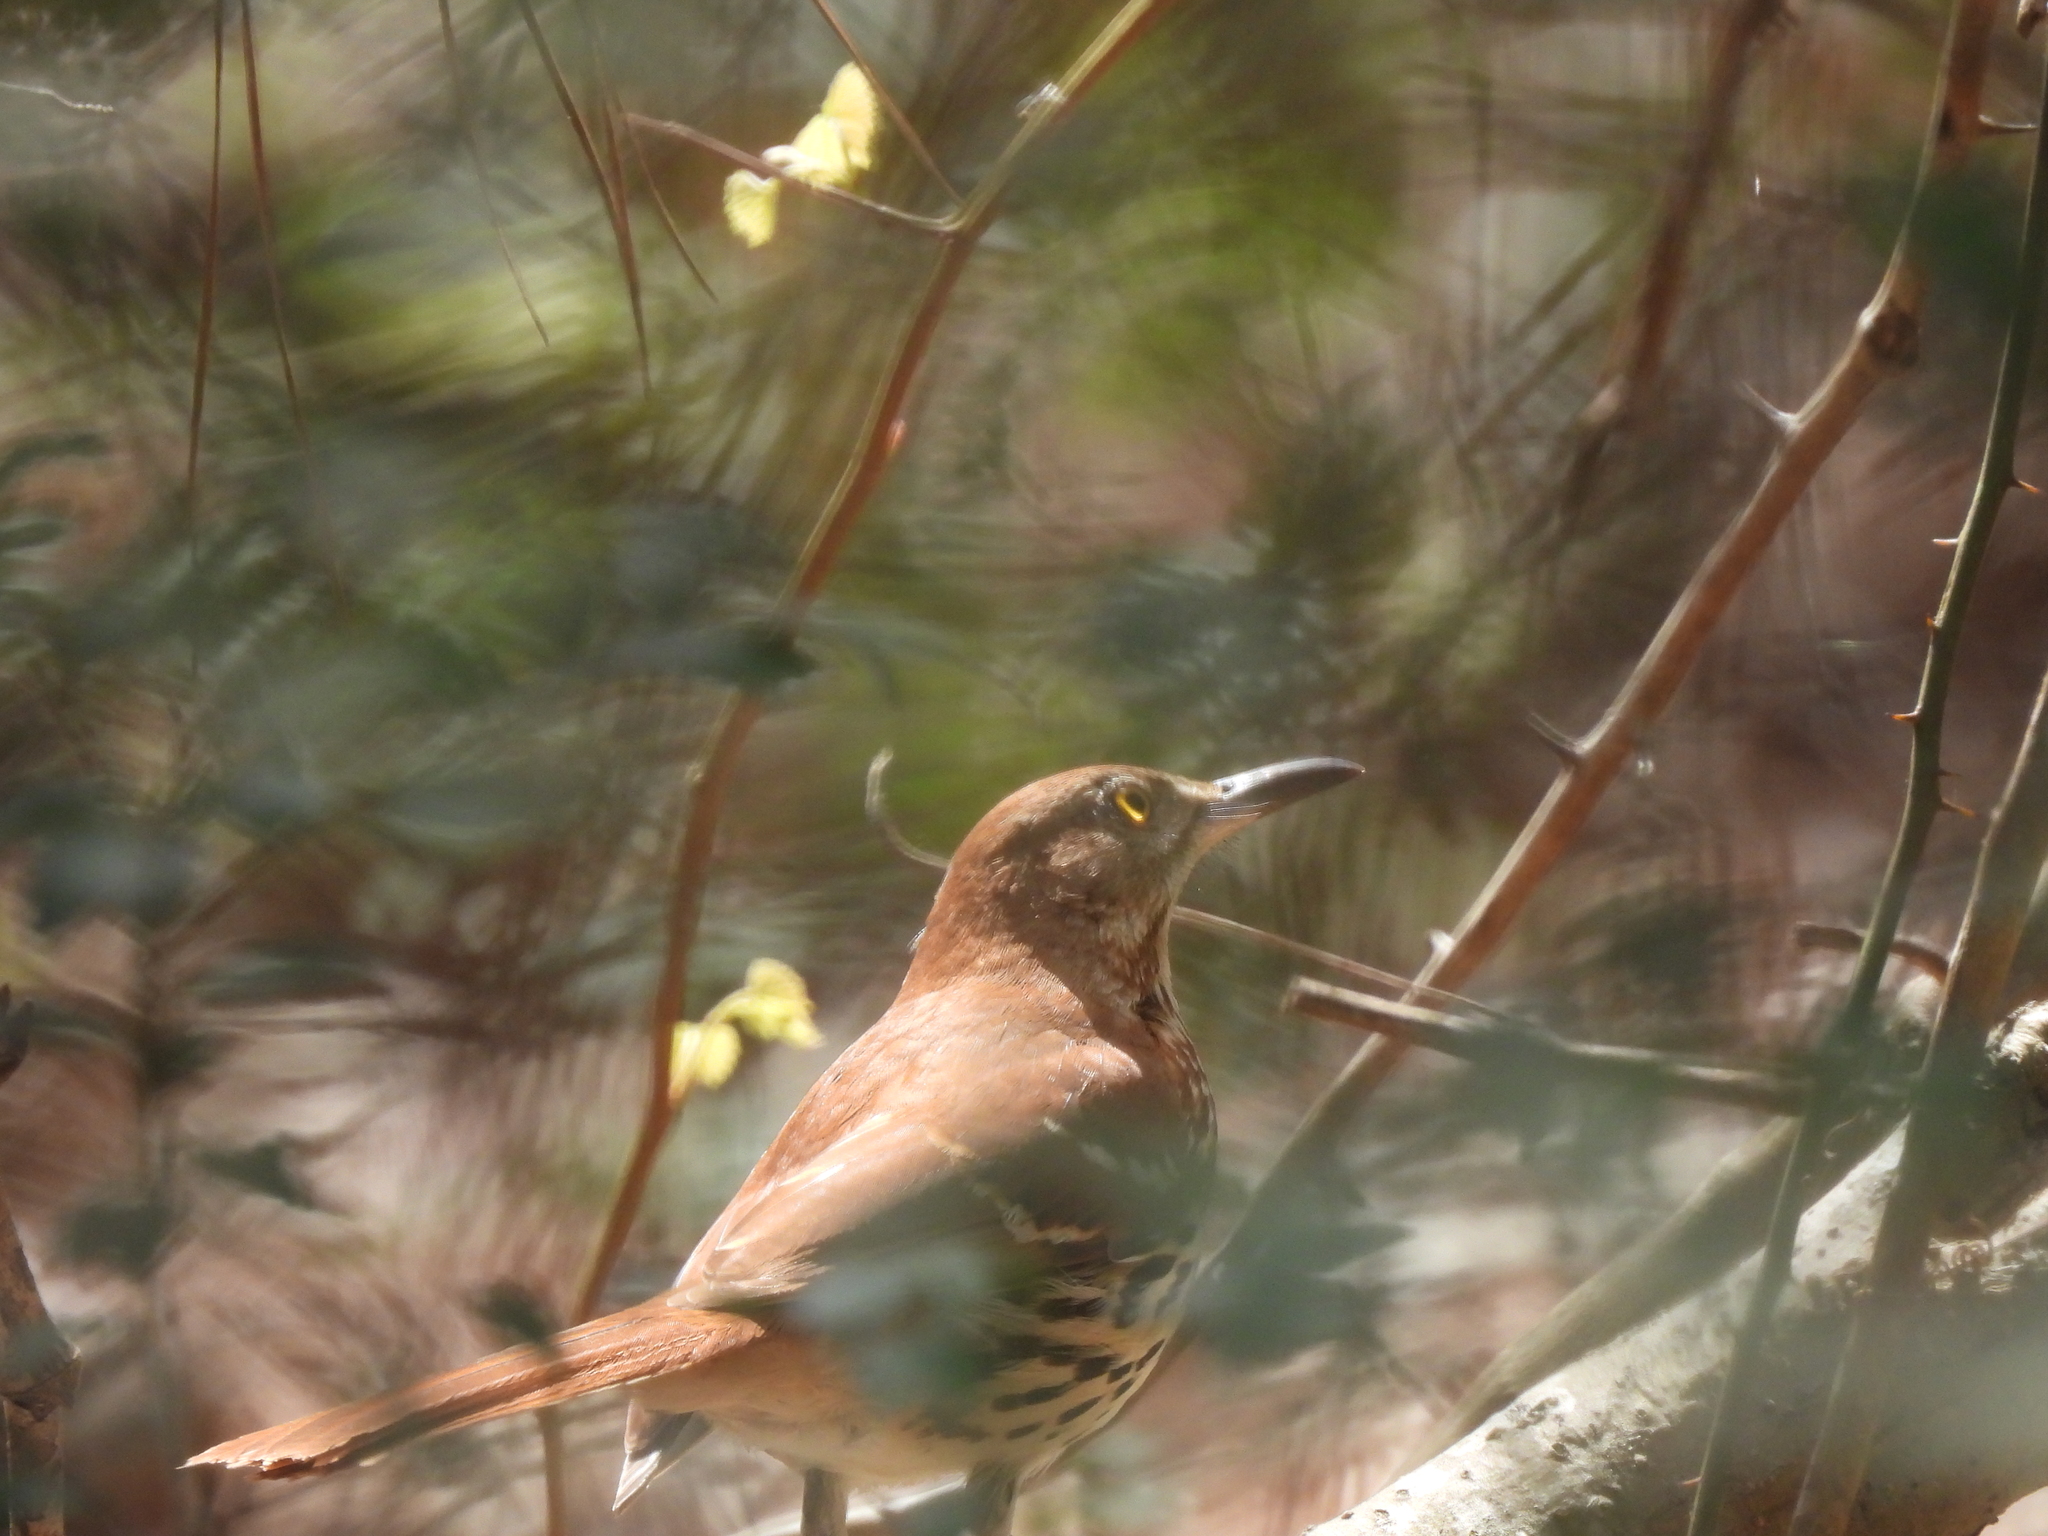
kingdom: Animalia
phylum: Chordata
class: Aves
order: Passeriformes
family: Mimidae
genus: Toxostoma
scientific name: Toxostoma rufum
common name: Brown thrasher
